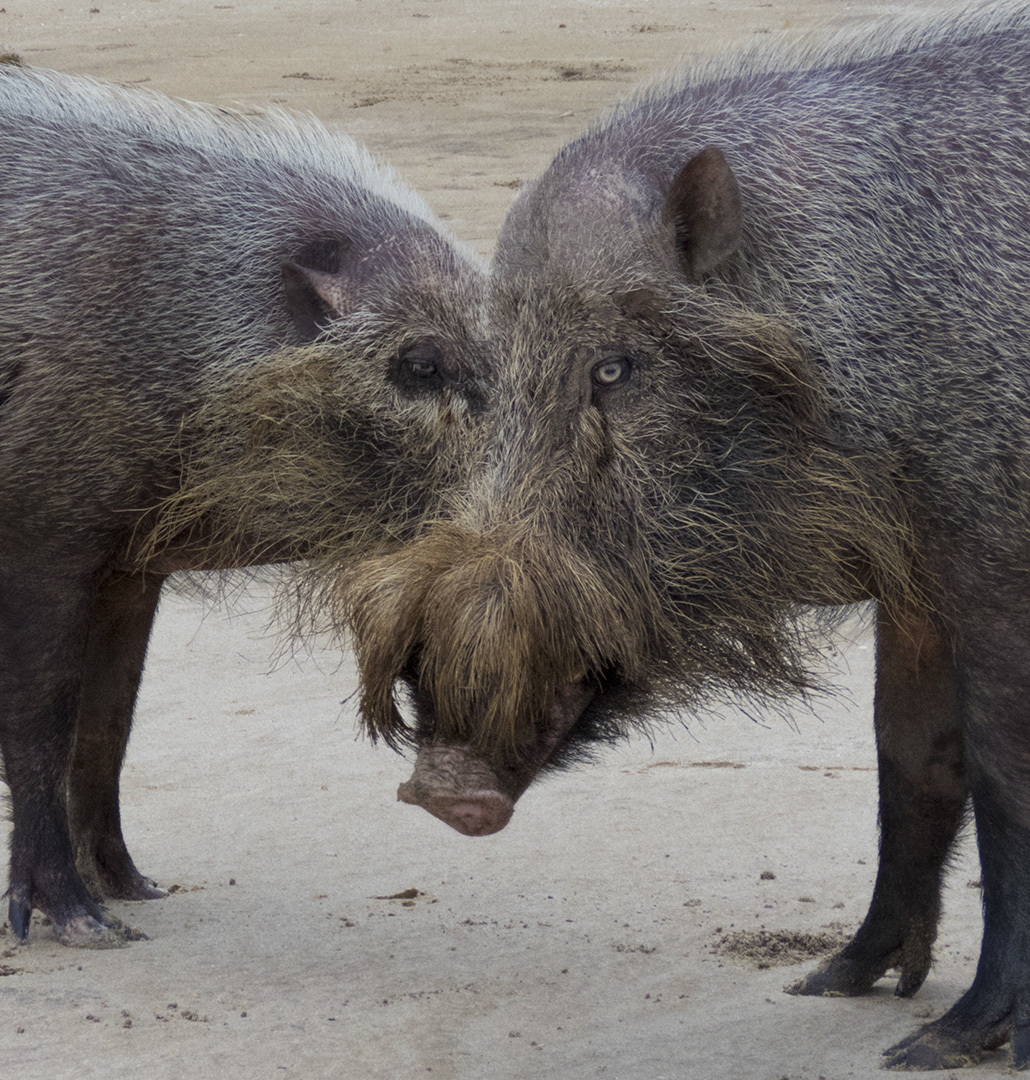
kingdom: Animalia
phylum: Chordata
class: Mammalia
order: Artiodactyla
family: Suidae
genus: Sus
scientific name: Sus barbatus
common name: Bearded pig
